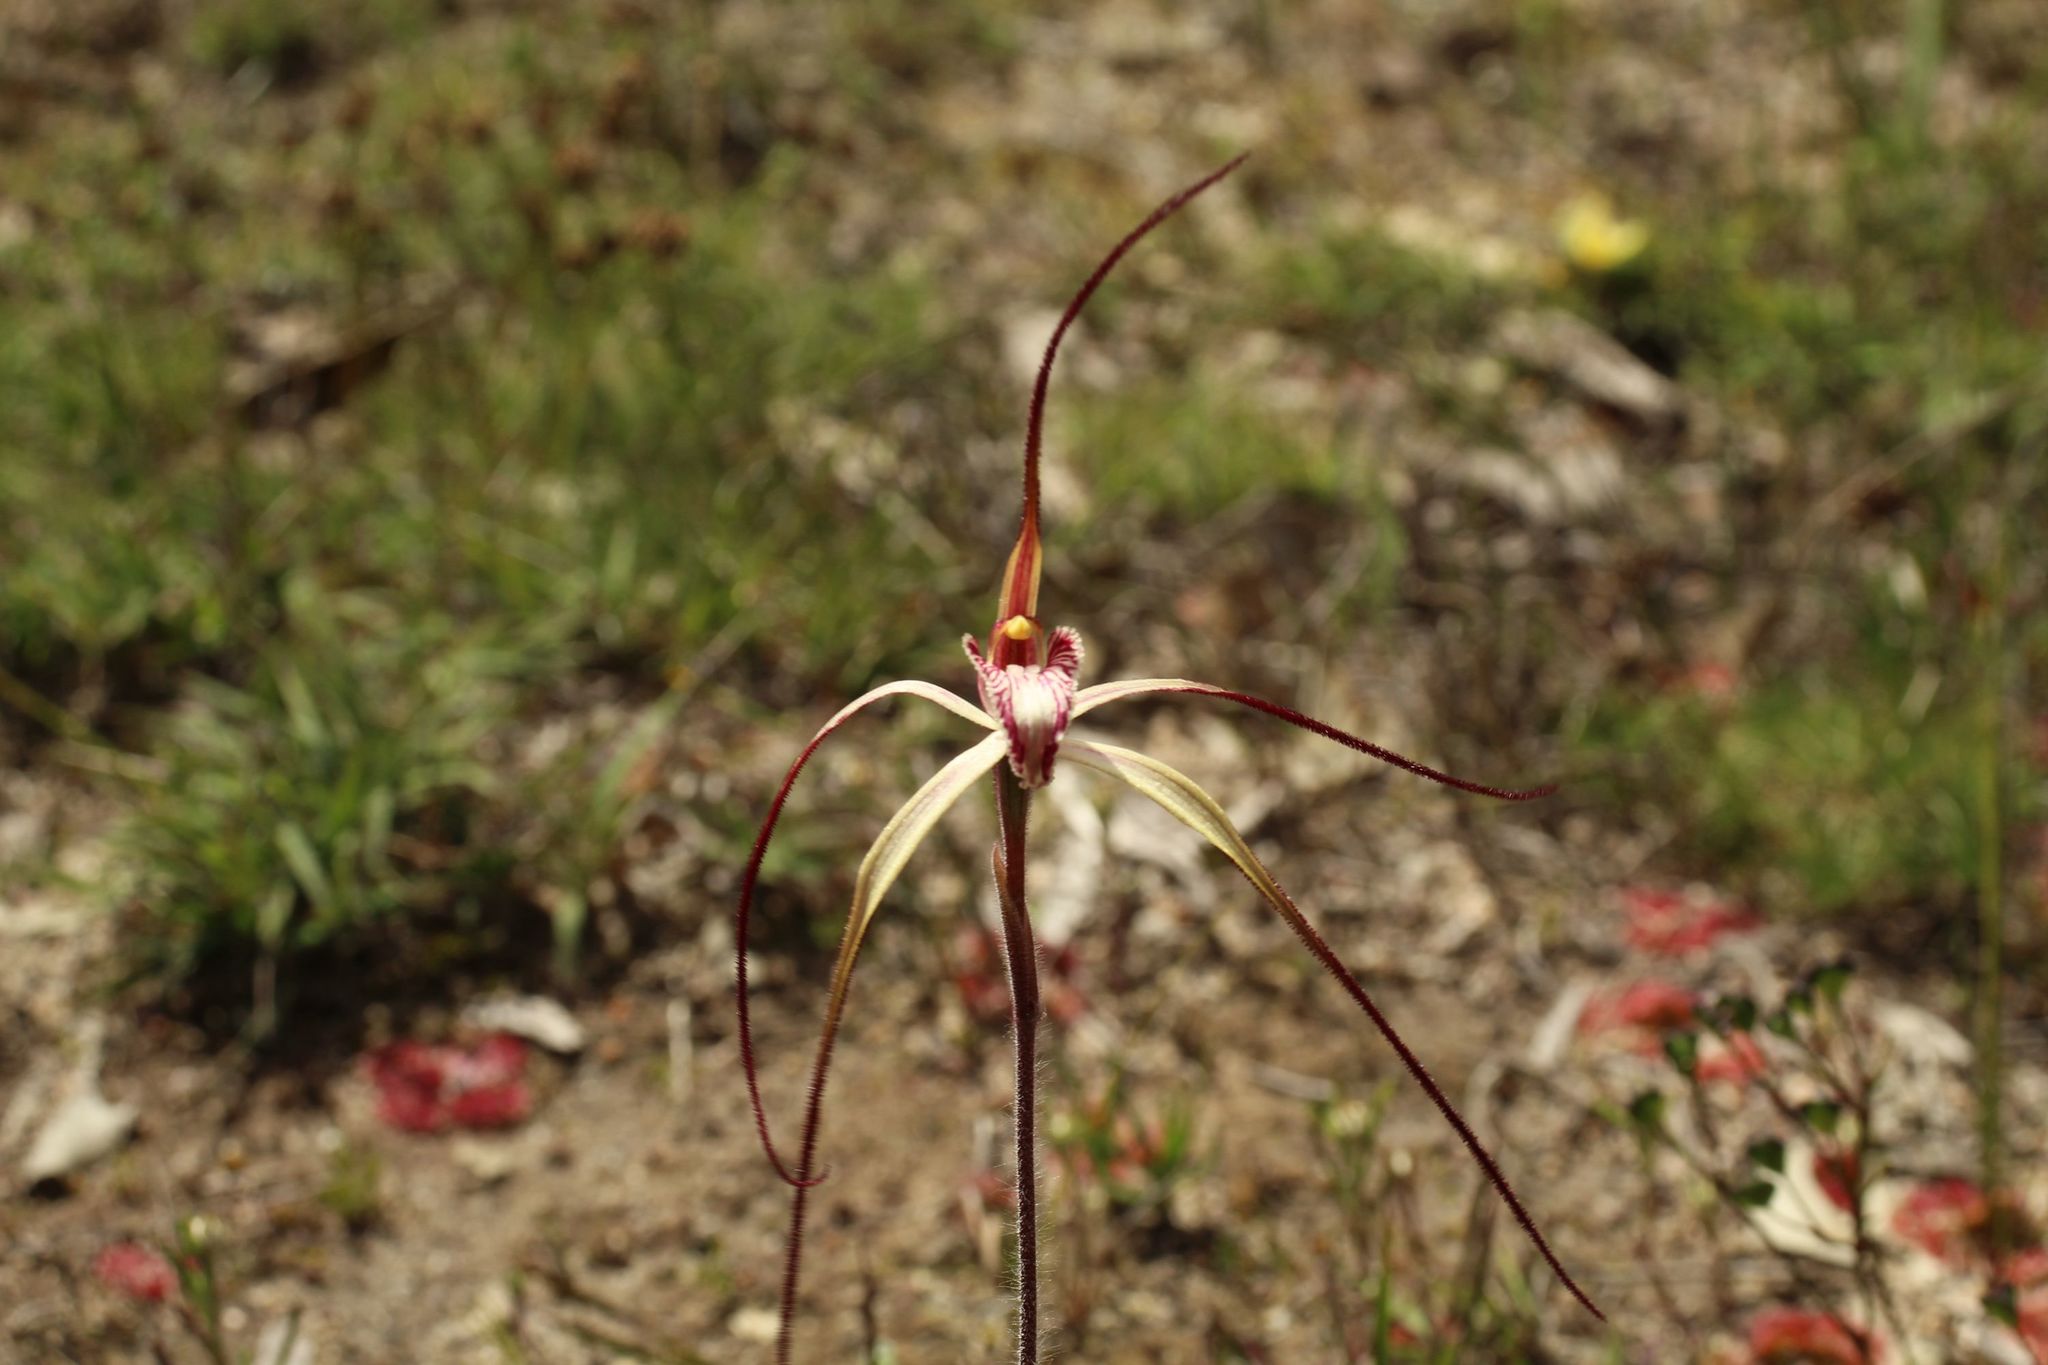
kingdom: Plantae
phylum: Tracheophyta
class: Liliopsida
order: Asparagales
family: Orchidaceae
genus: Caladenia
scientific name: Caladenia polychroma
